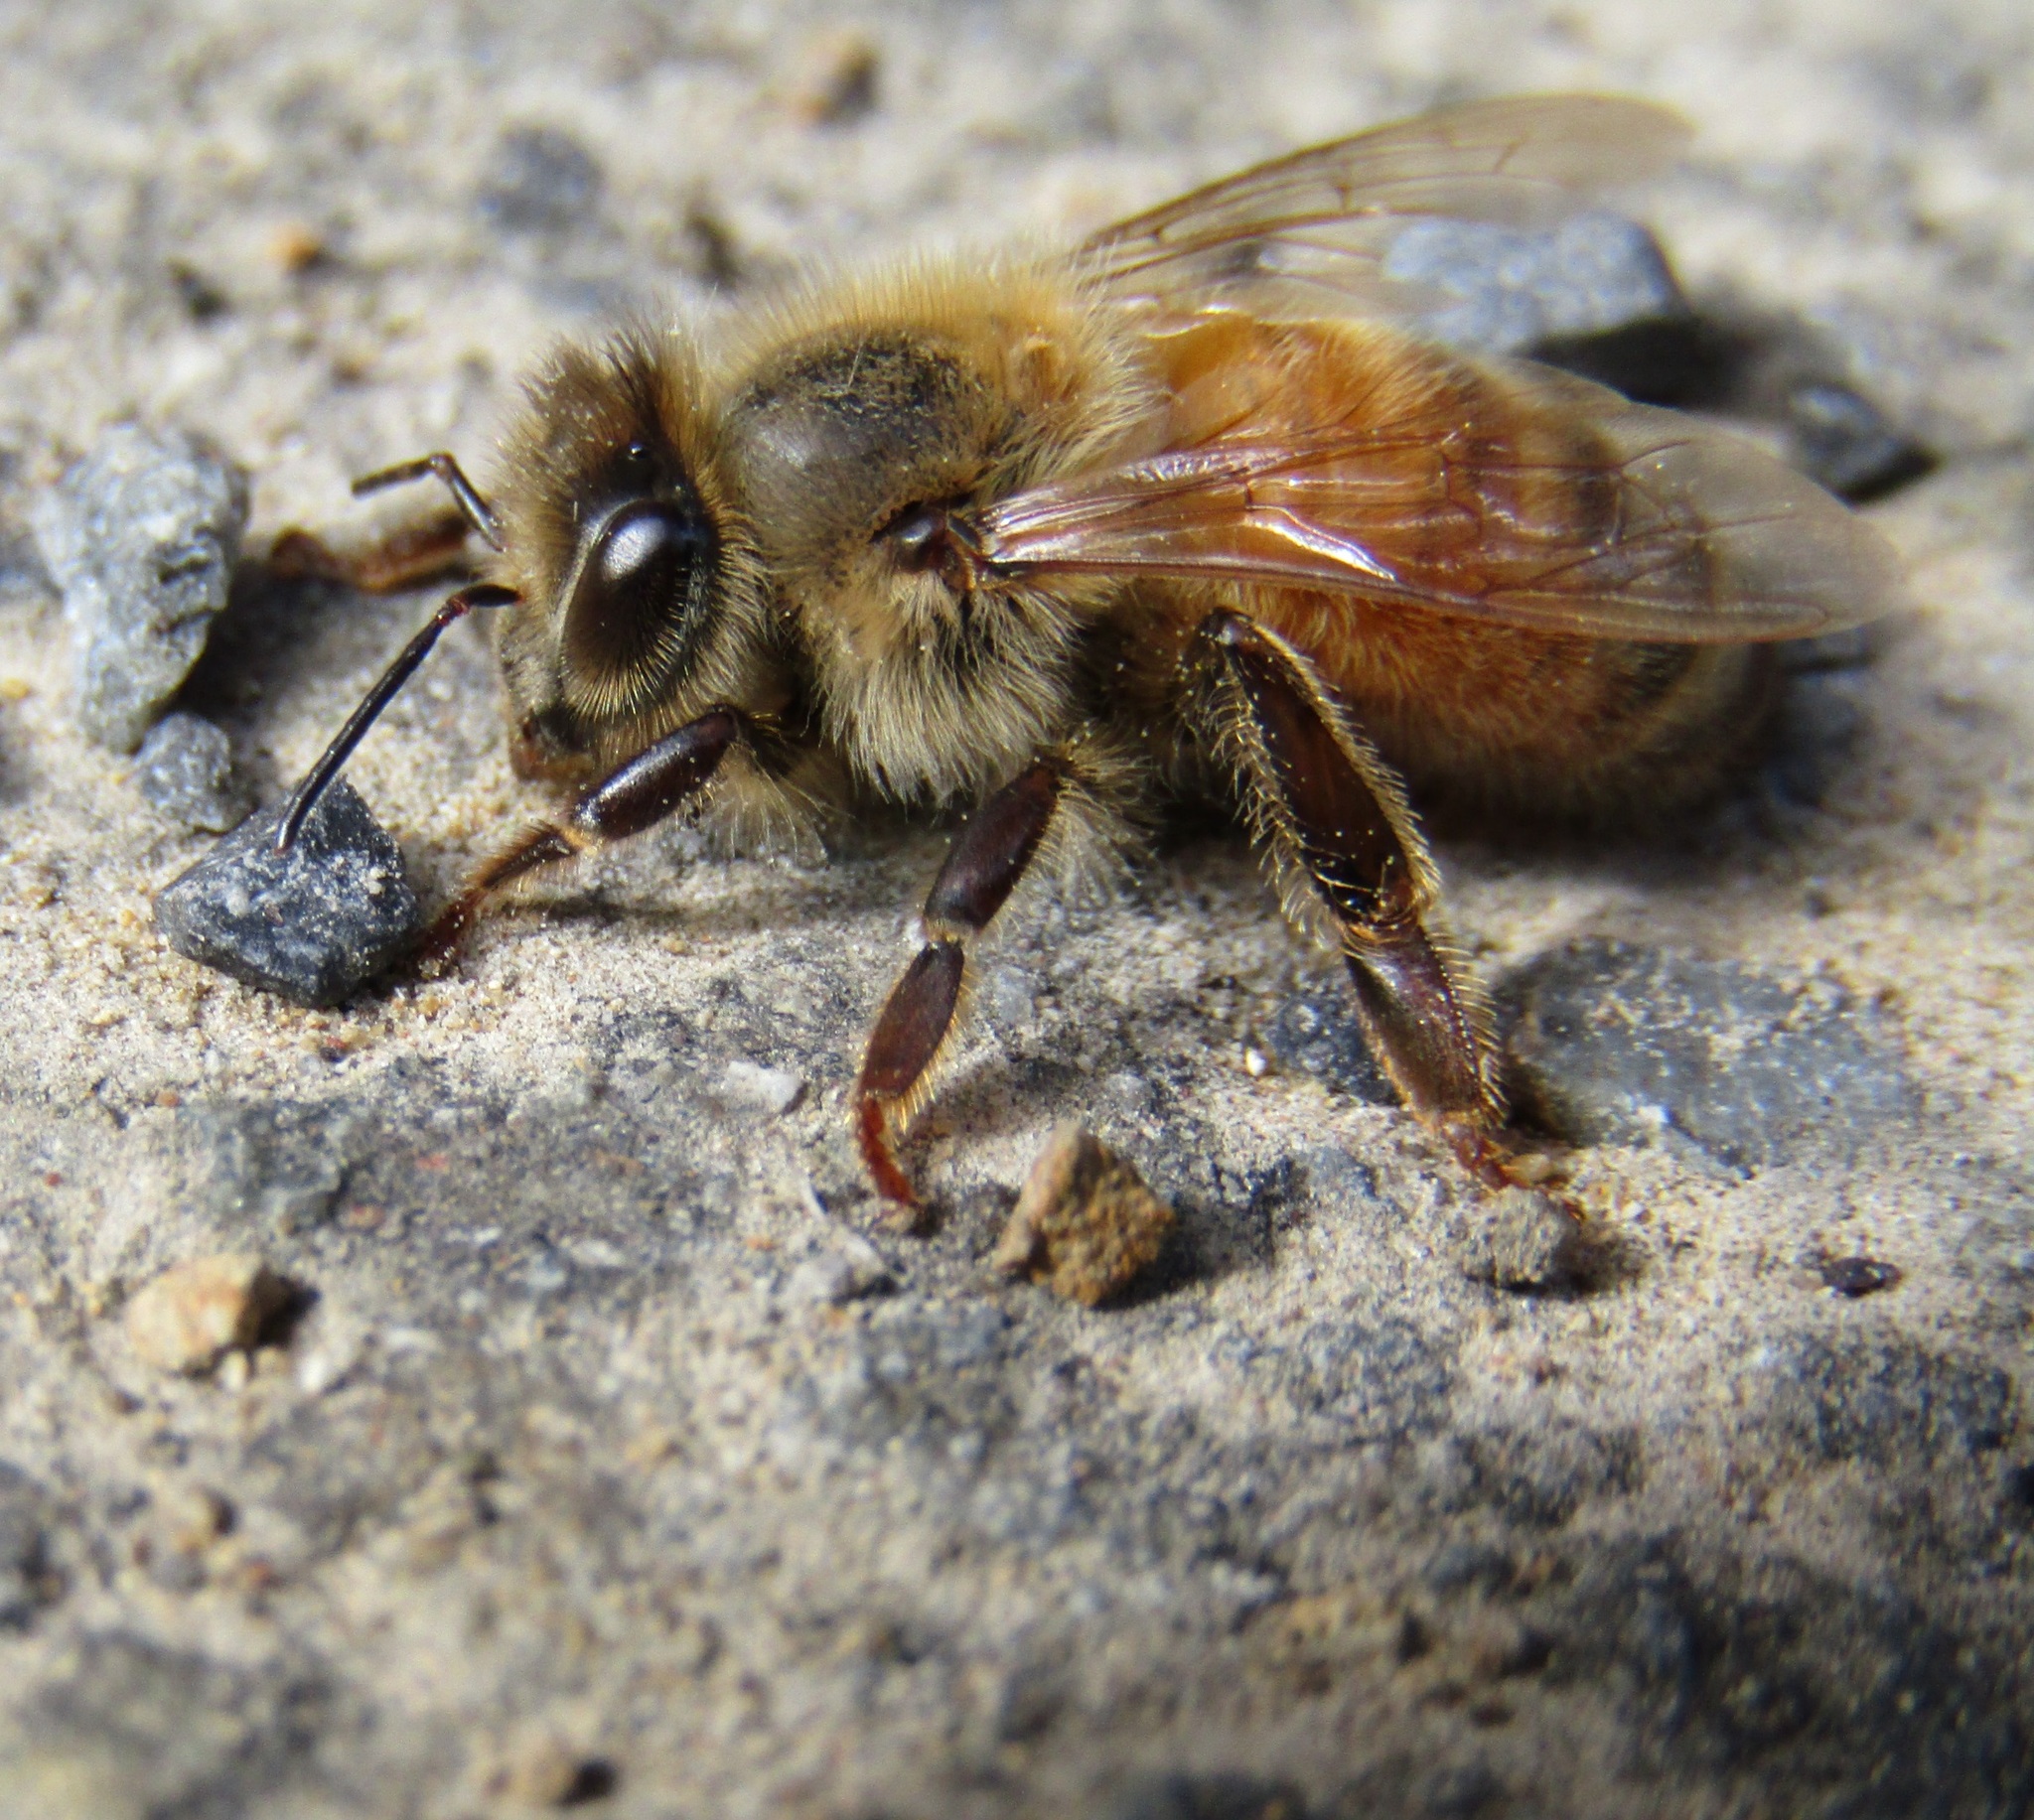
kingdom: Animalia
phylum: Arthropoda
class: Insecta
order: Hymenoptera
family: Apidae
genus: Apis
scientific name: Apis mellifera
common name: Honey bee
